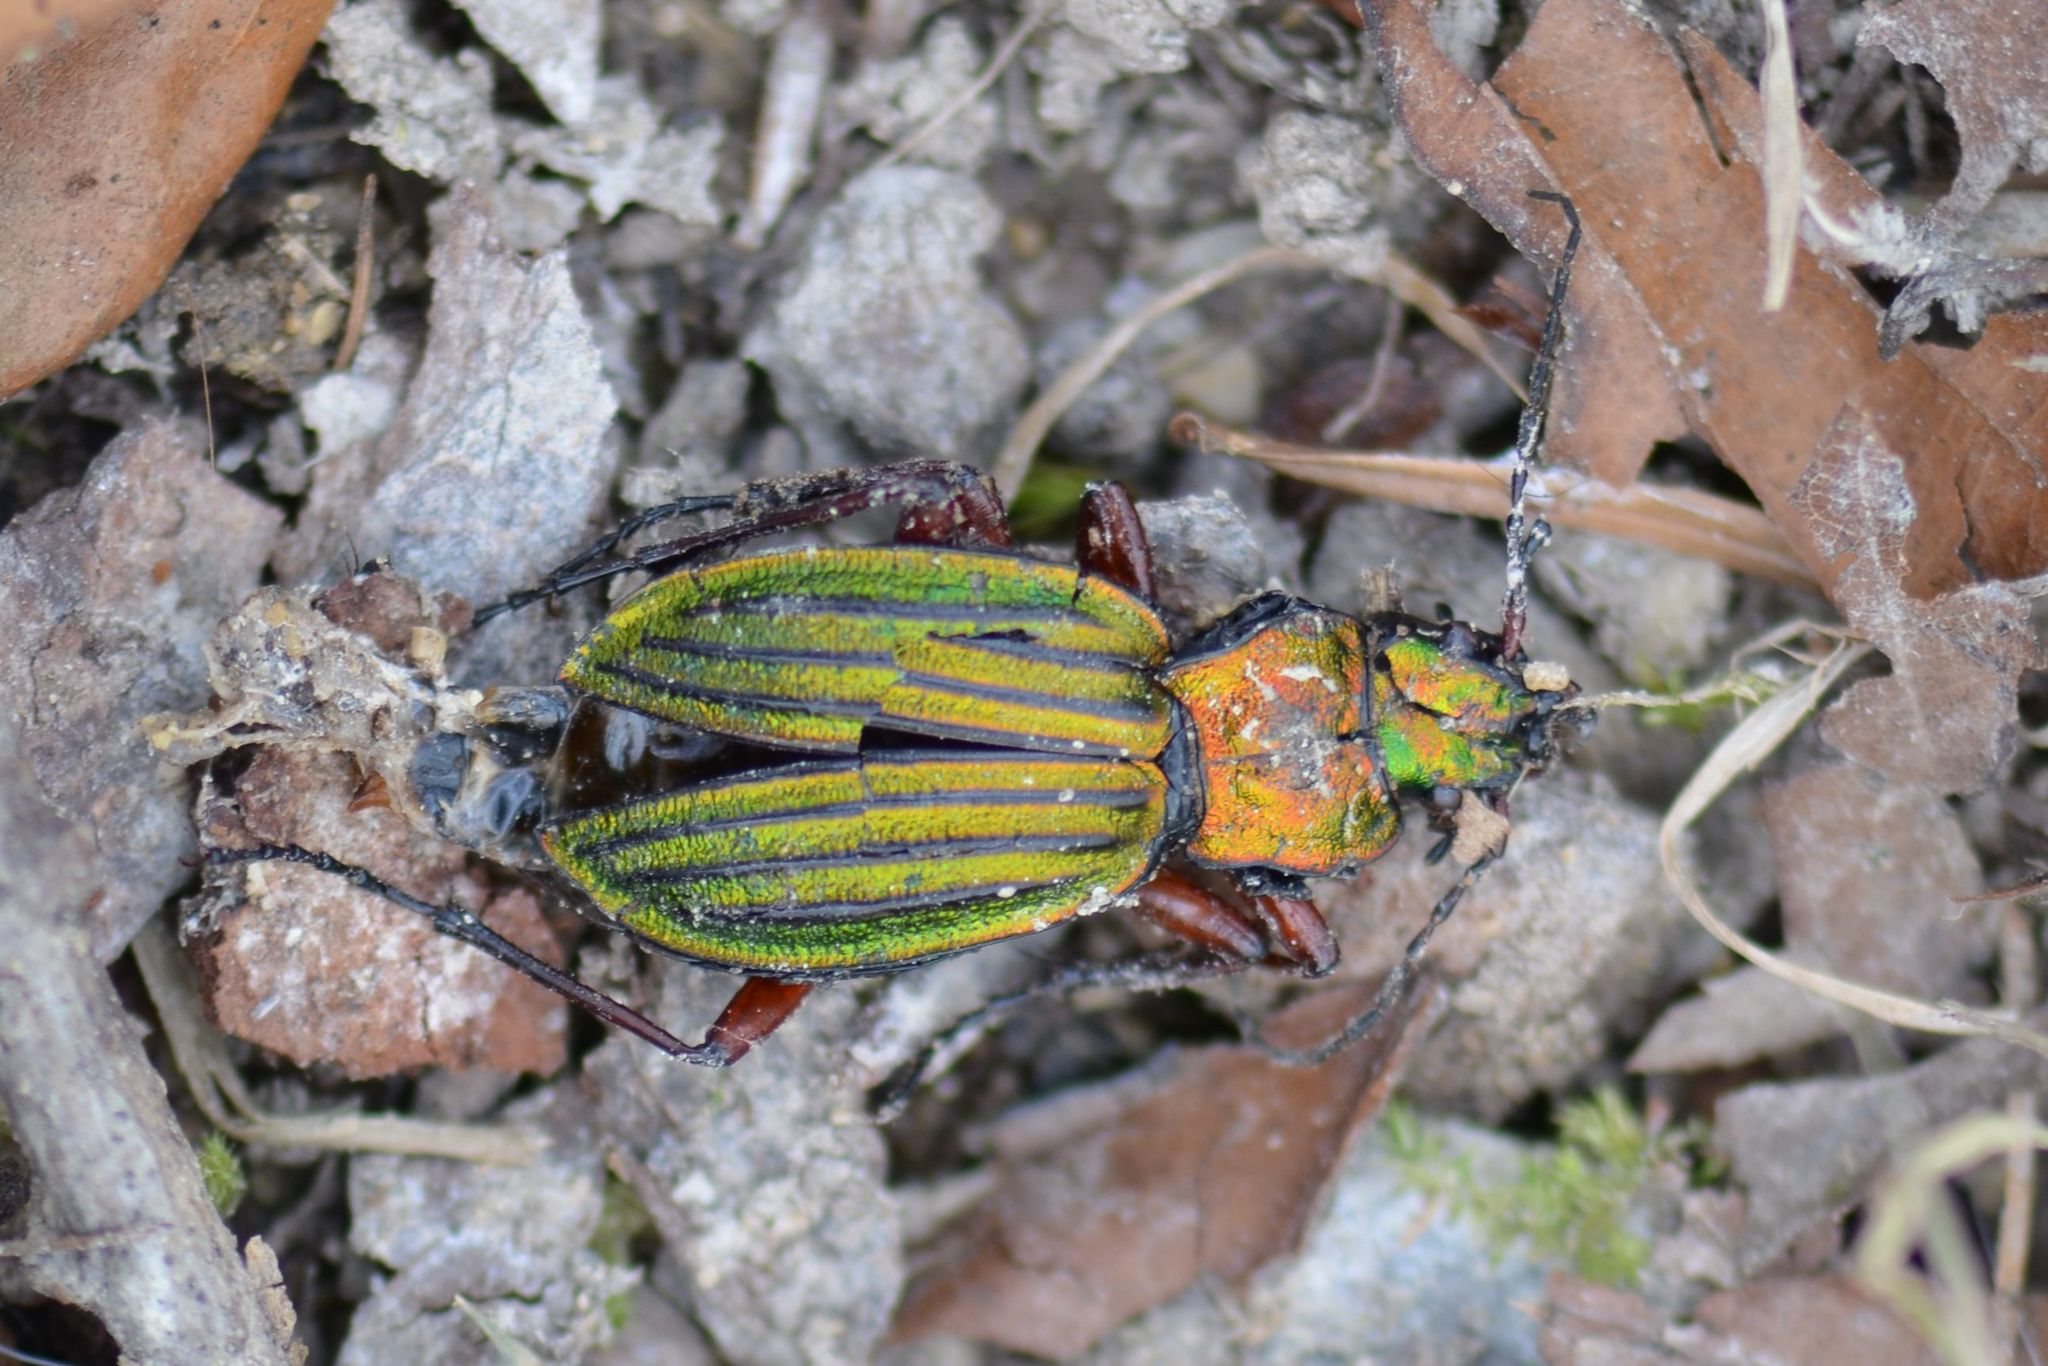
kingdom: Animalia
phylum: Arthropoda
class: Insecta
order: Coleoptera
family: Carabidae
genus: Carabus
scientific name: Carabus auronitens
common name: Carabus auronitens
